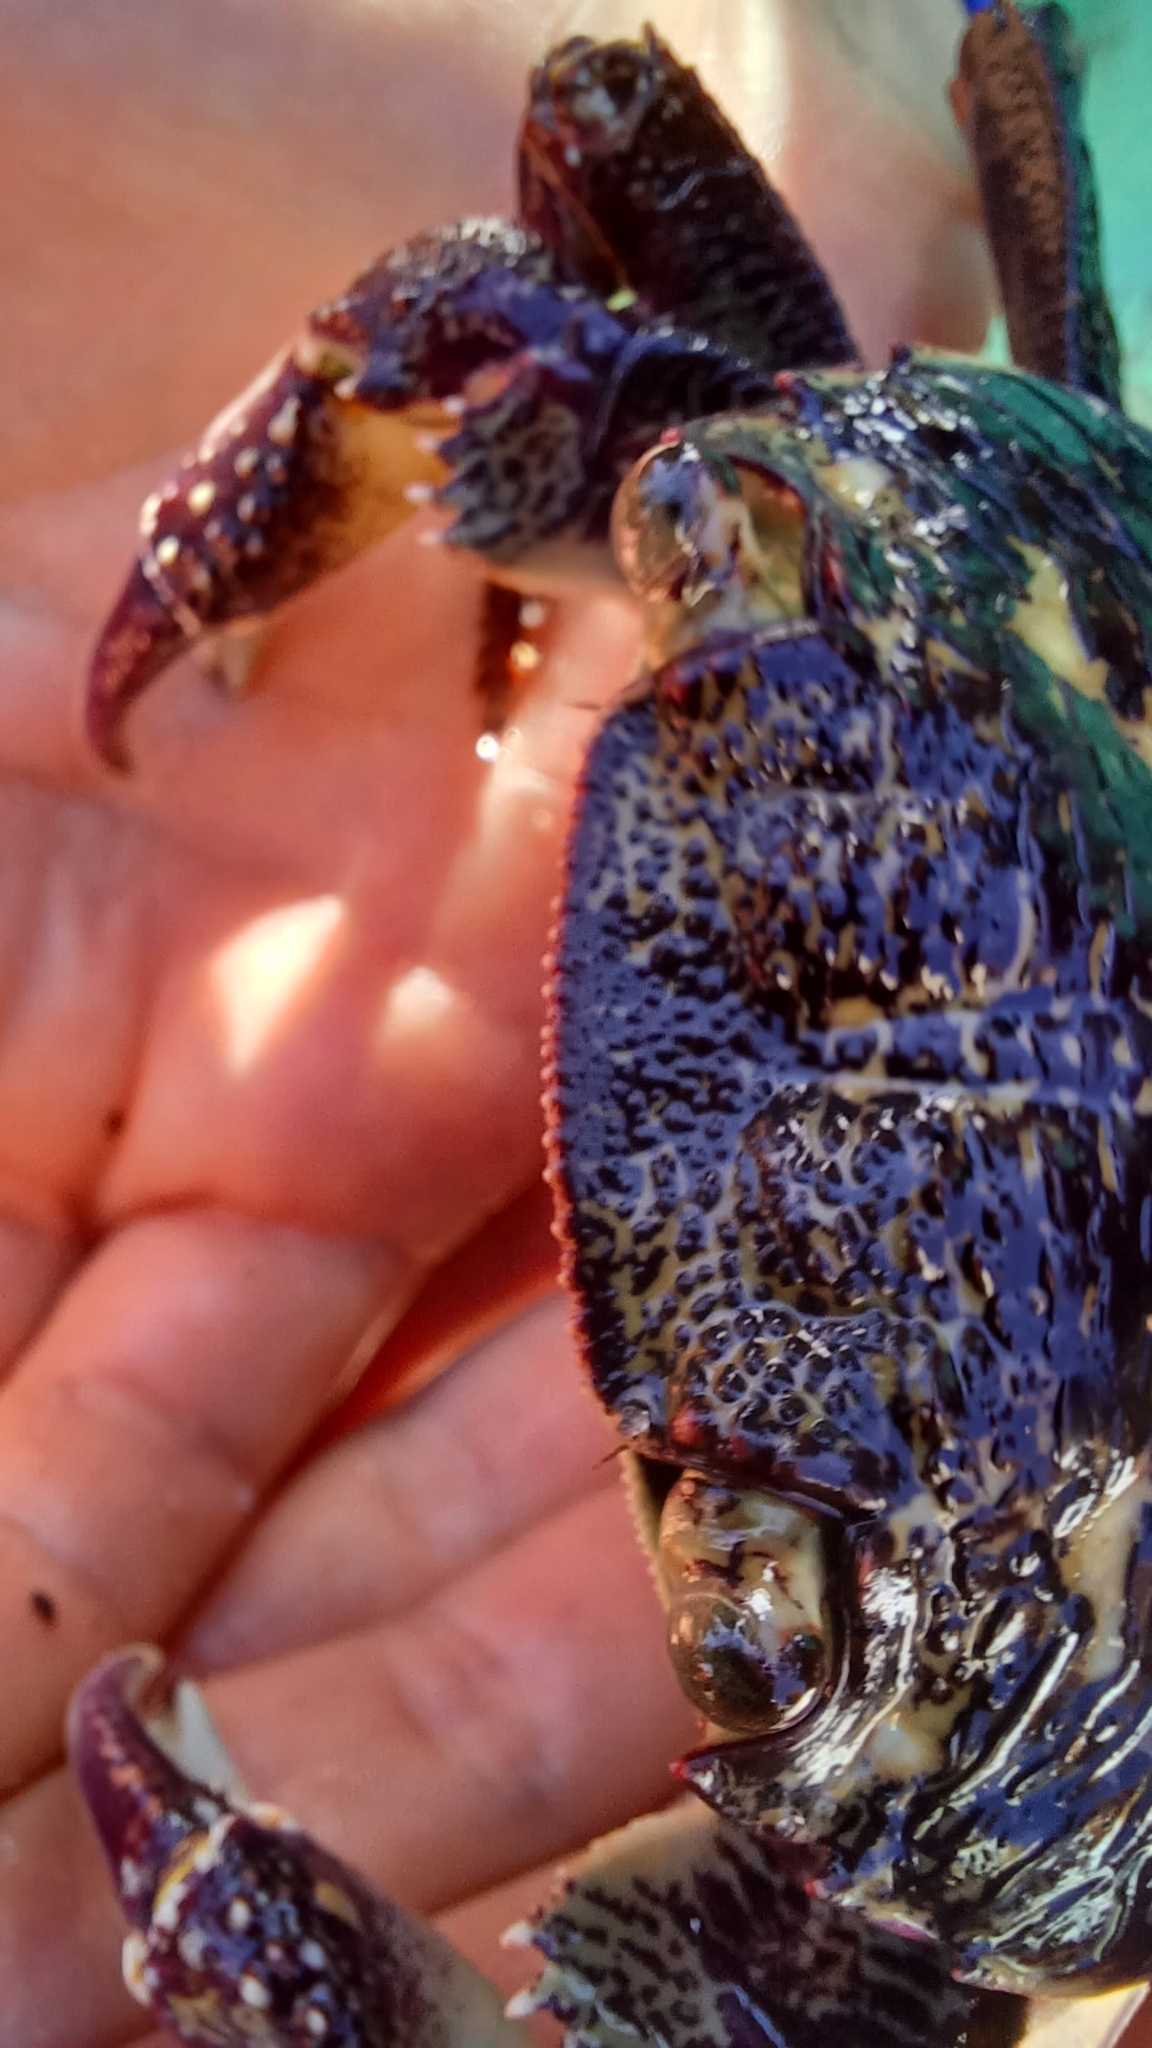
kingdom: Animalia
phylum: Arthropoda
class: Malacostraca
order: Decapoda
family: Grapsidae
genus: Leptograpsus
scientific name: Leptograpsus variegatus
